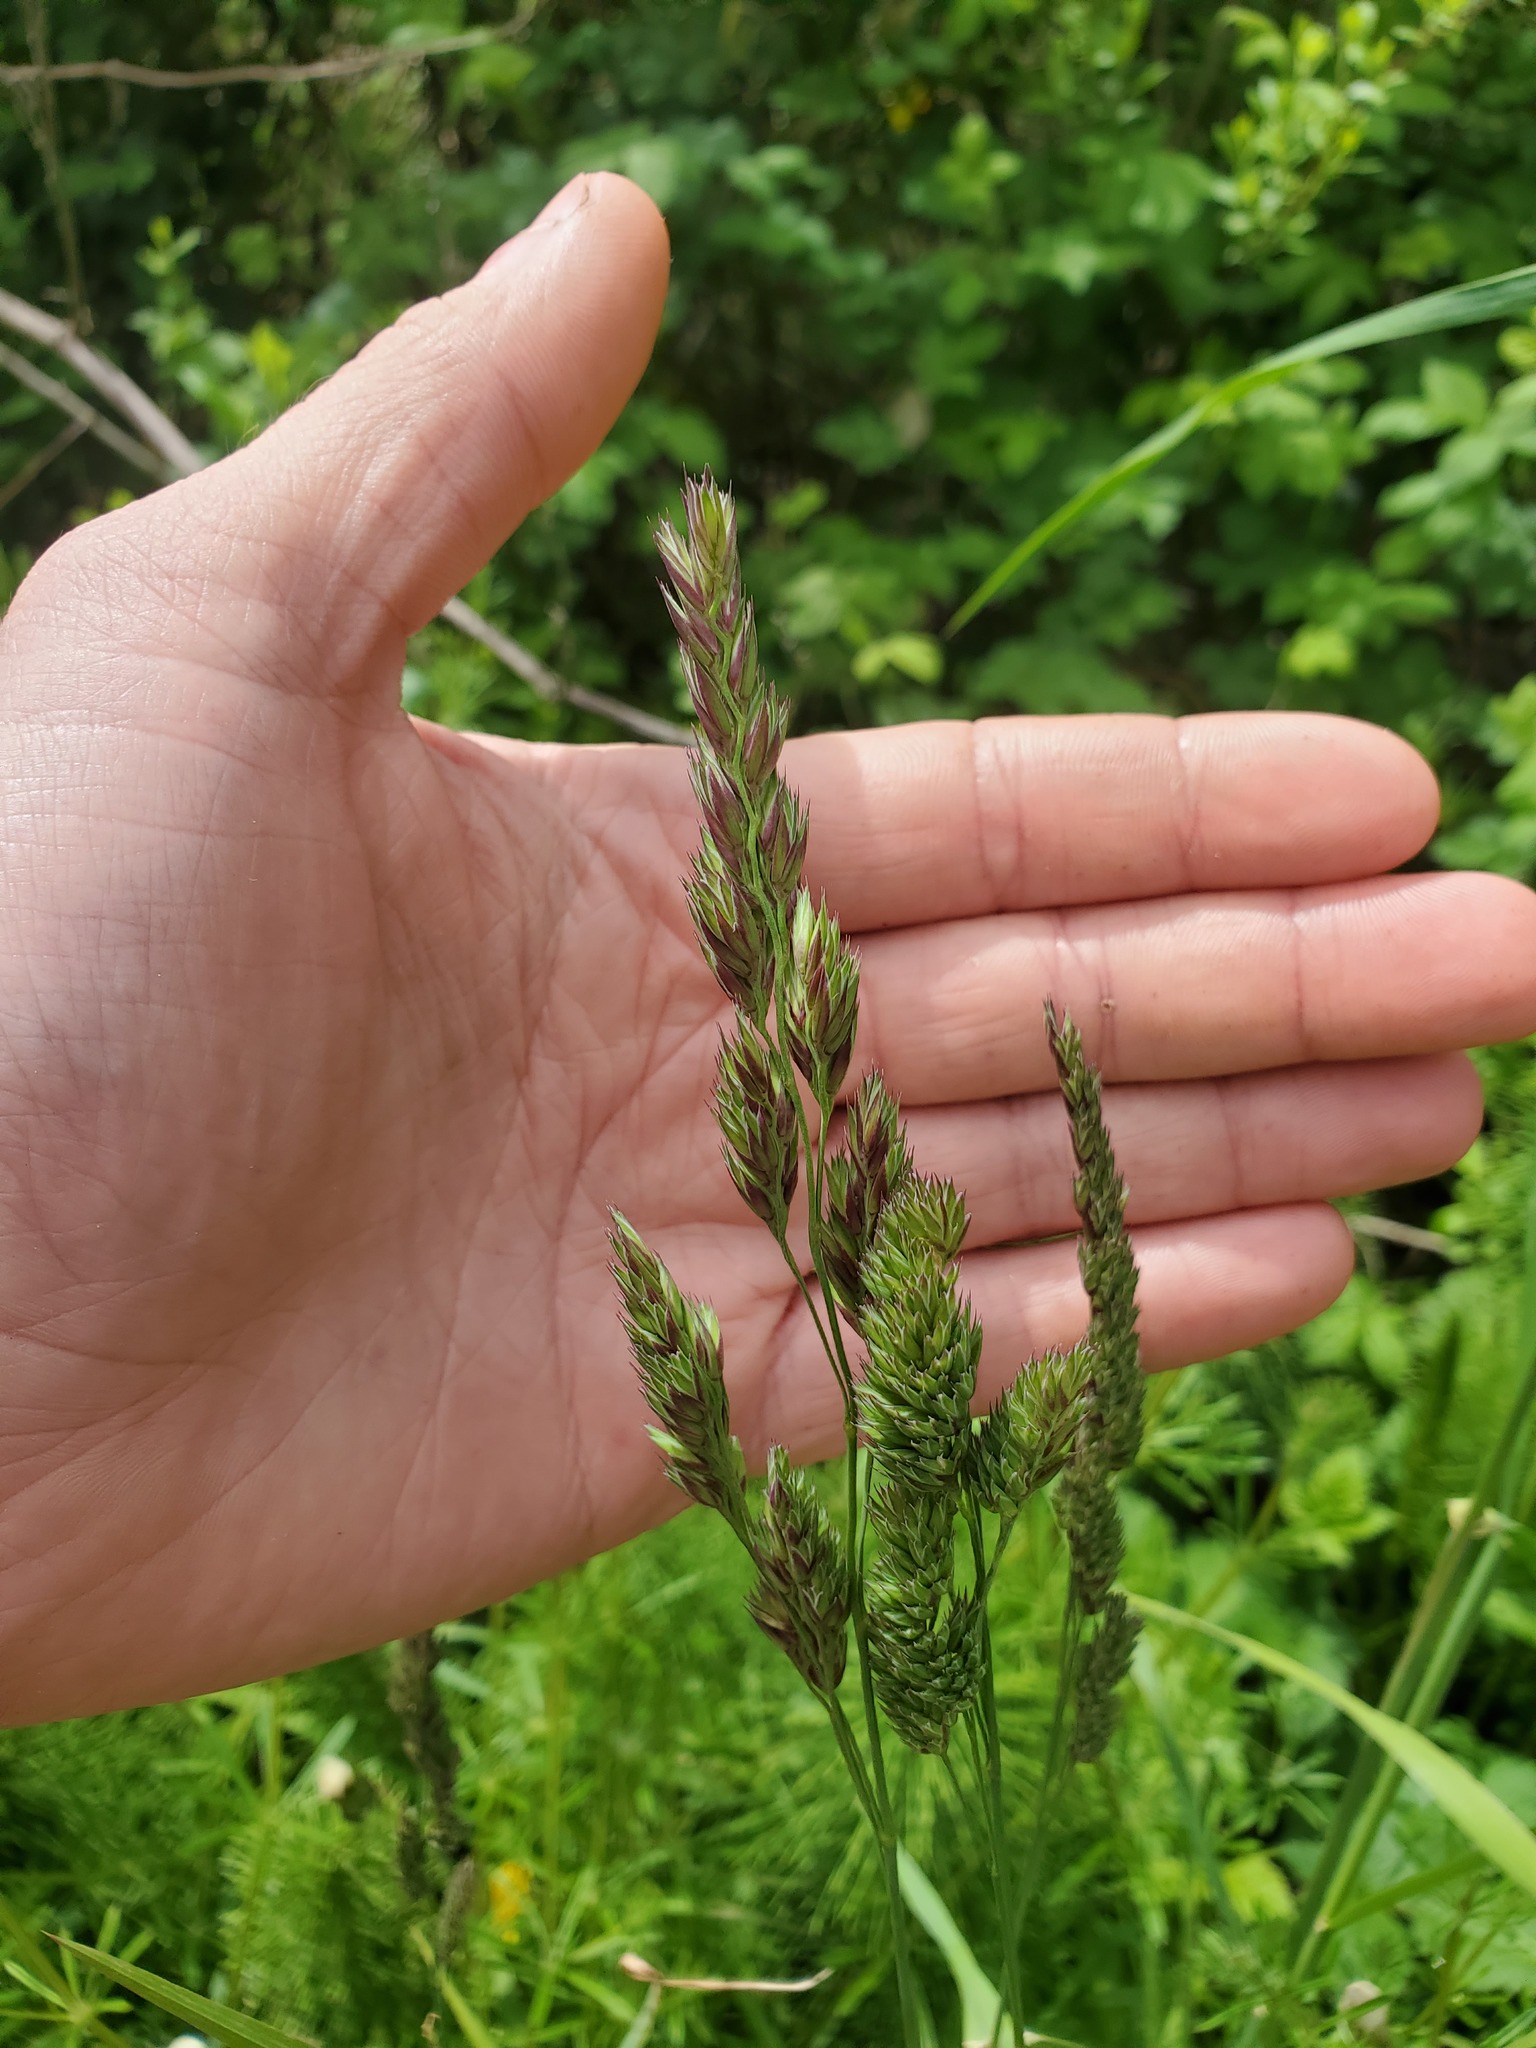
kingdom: Plantae
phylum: Tracheophyta
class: Liliopsida
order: Poales
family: Poaceae
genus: Dactylis
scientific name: Dactylis glomerata
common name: Orchardgrass
